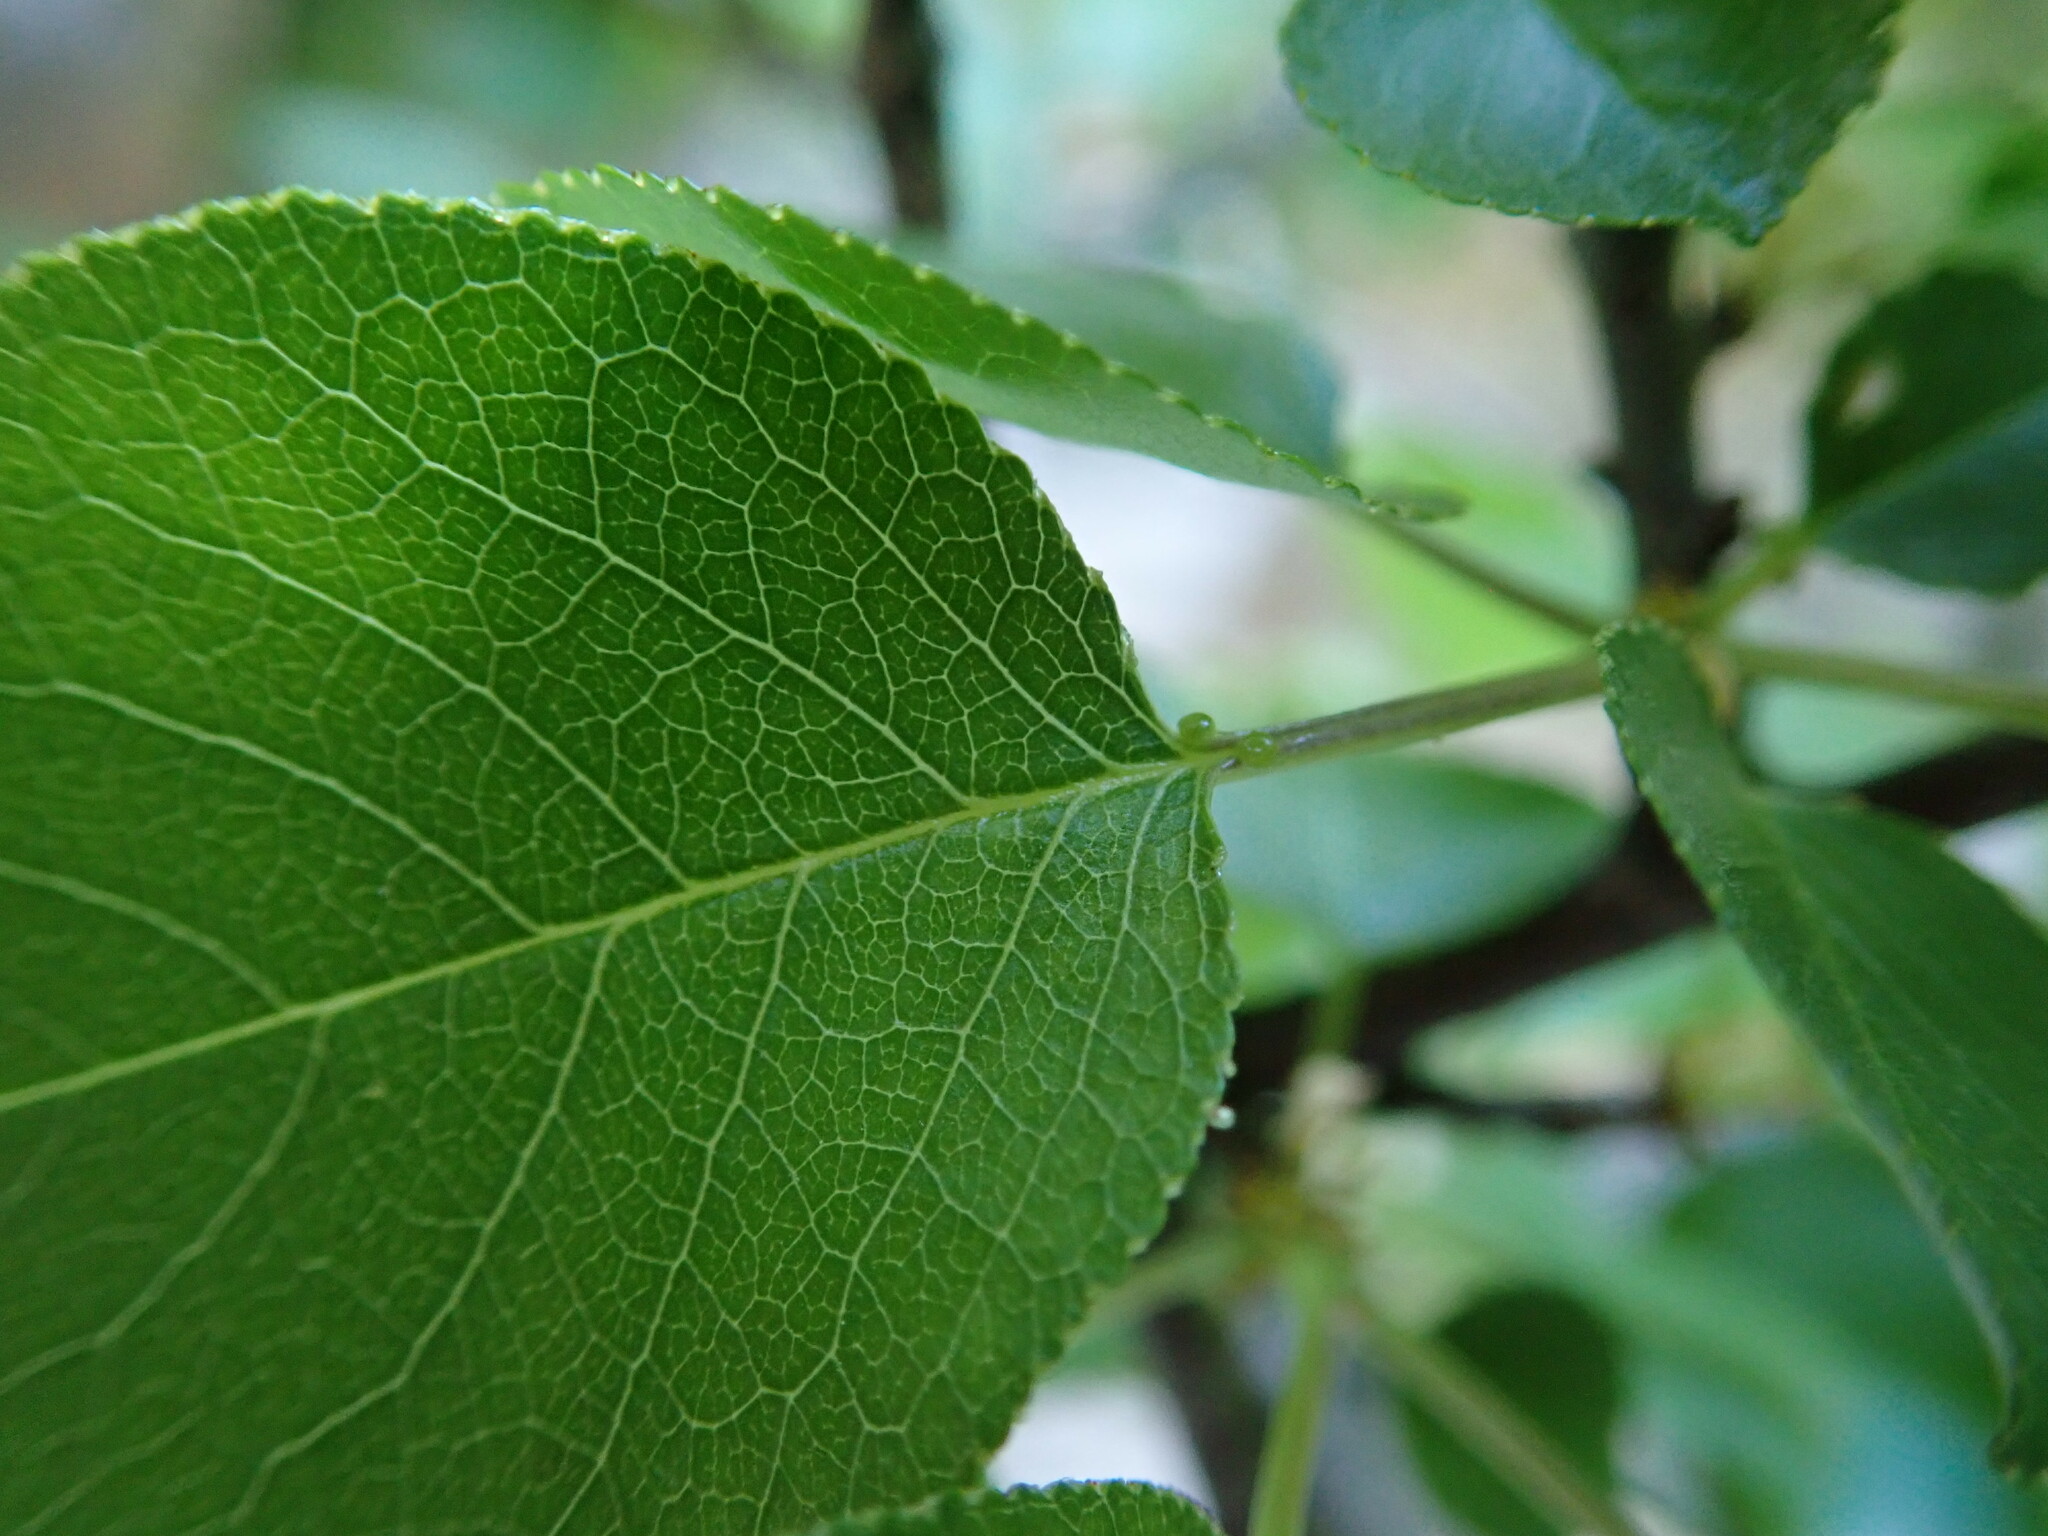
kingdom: Plantae
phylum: Tracheophyta
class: Magnoliopsida
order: Rosales
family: Rosaceae
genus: Prunus
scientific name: Prunus mahaleb
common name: Mahaleb cherry
